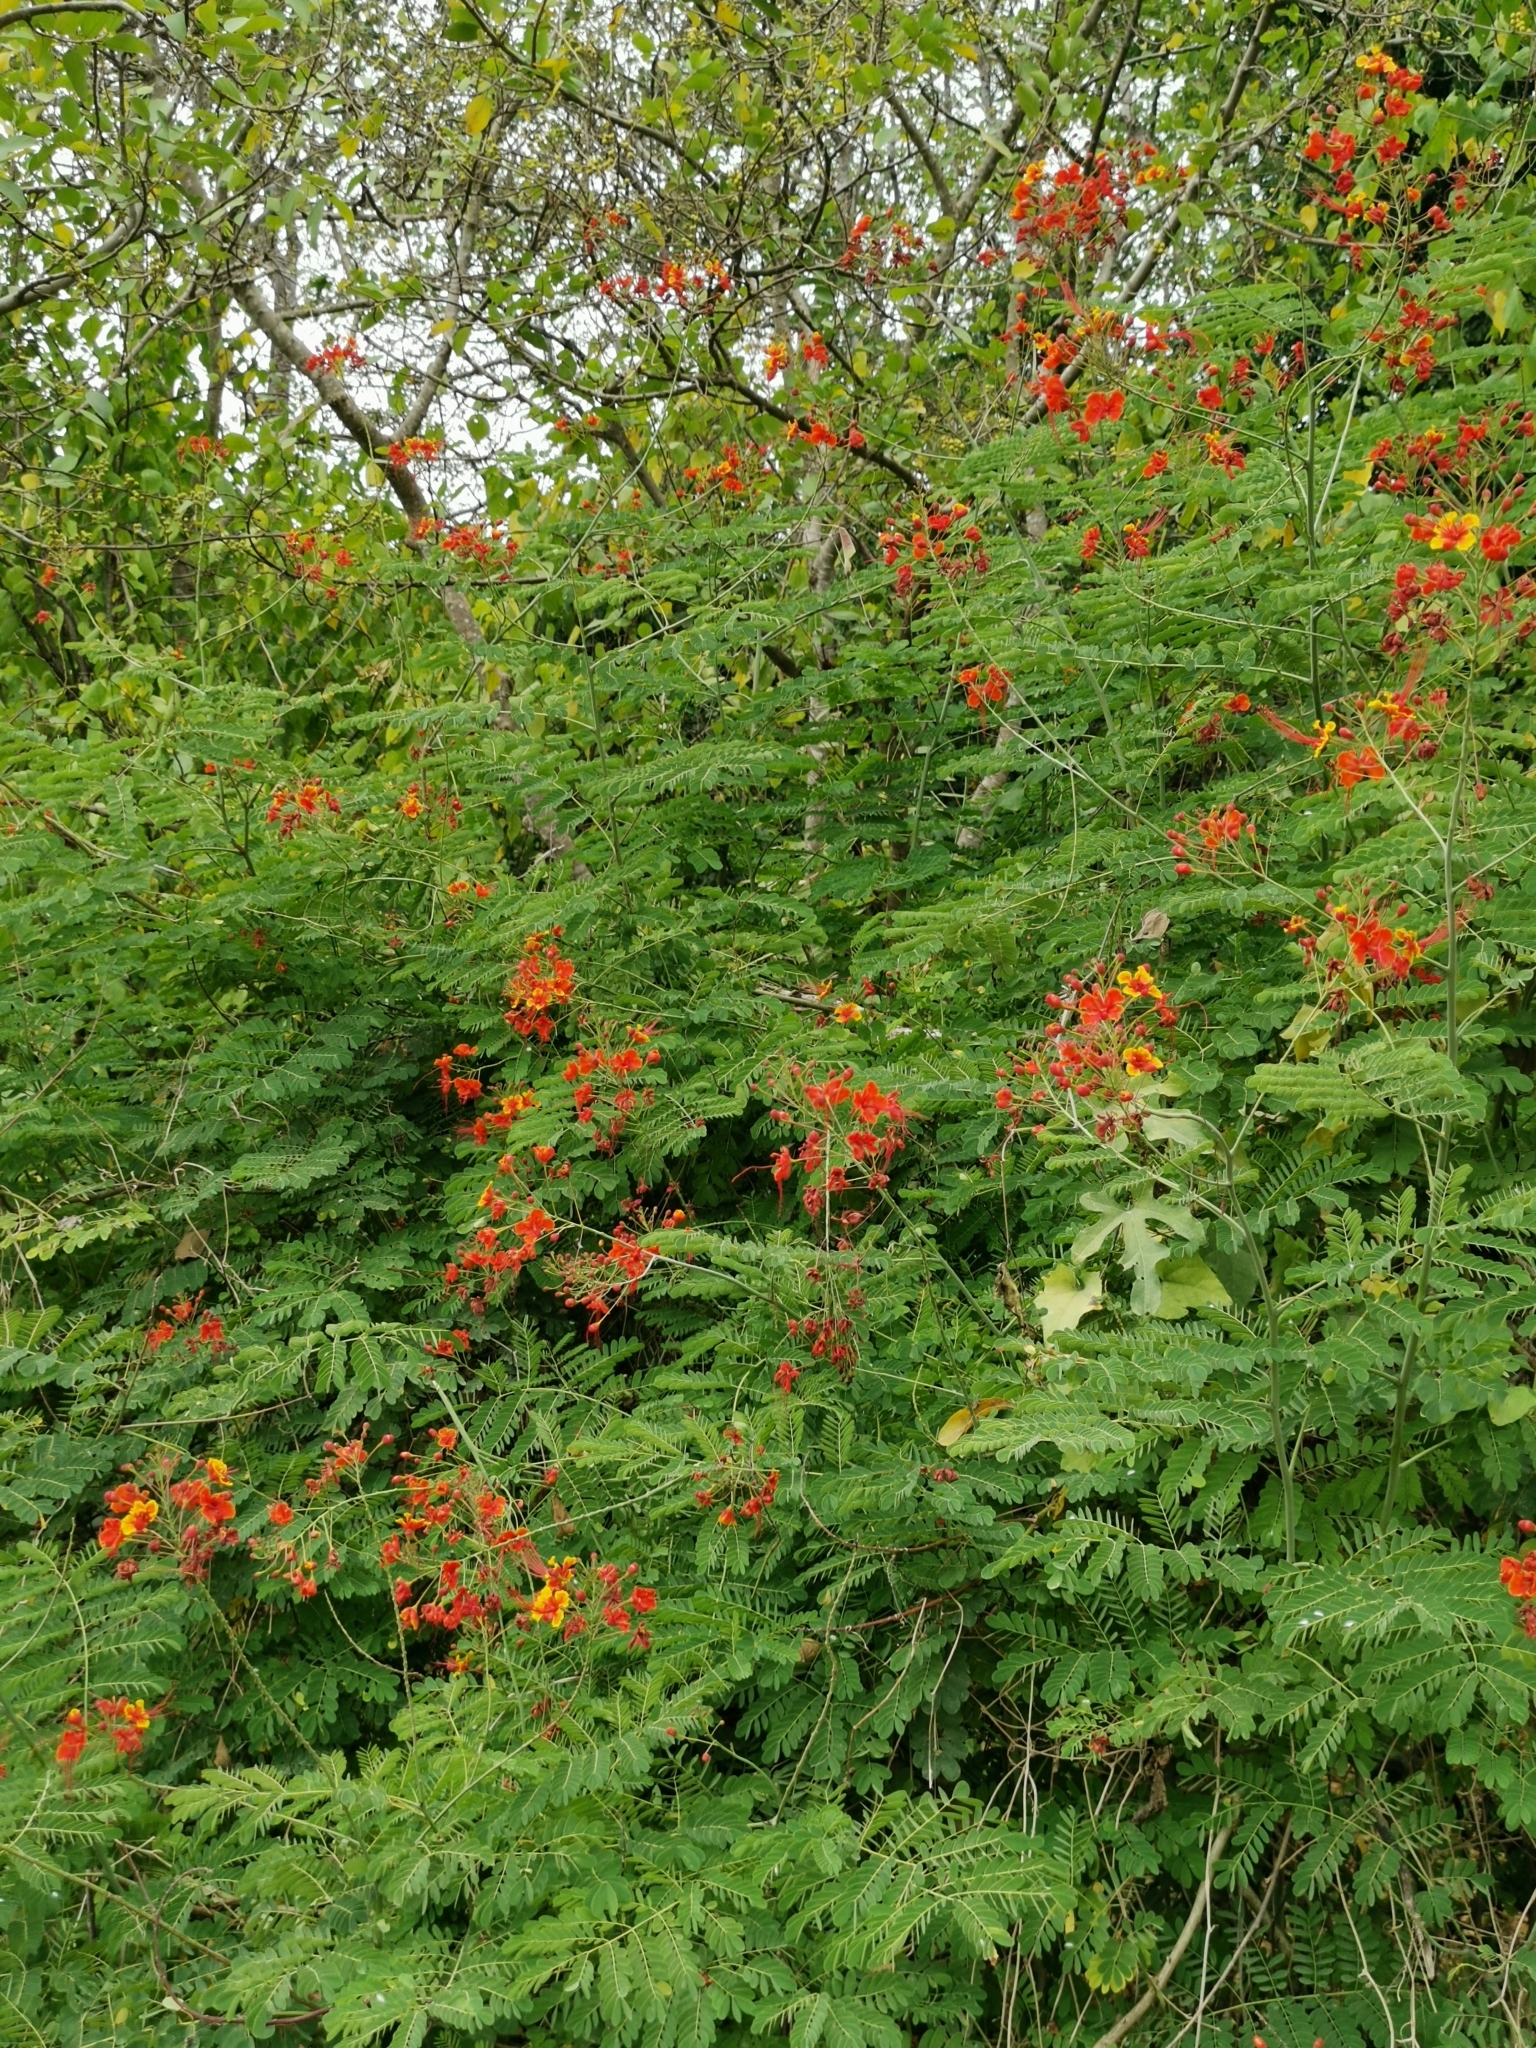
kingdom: Plantae
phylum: Tracheophyta
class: Magnoliopsida
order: Fabales
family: Fabaceae
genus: Caesalpinia
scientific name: Caesalpinia pulcherrima
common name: Pride-of-barbados
